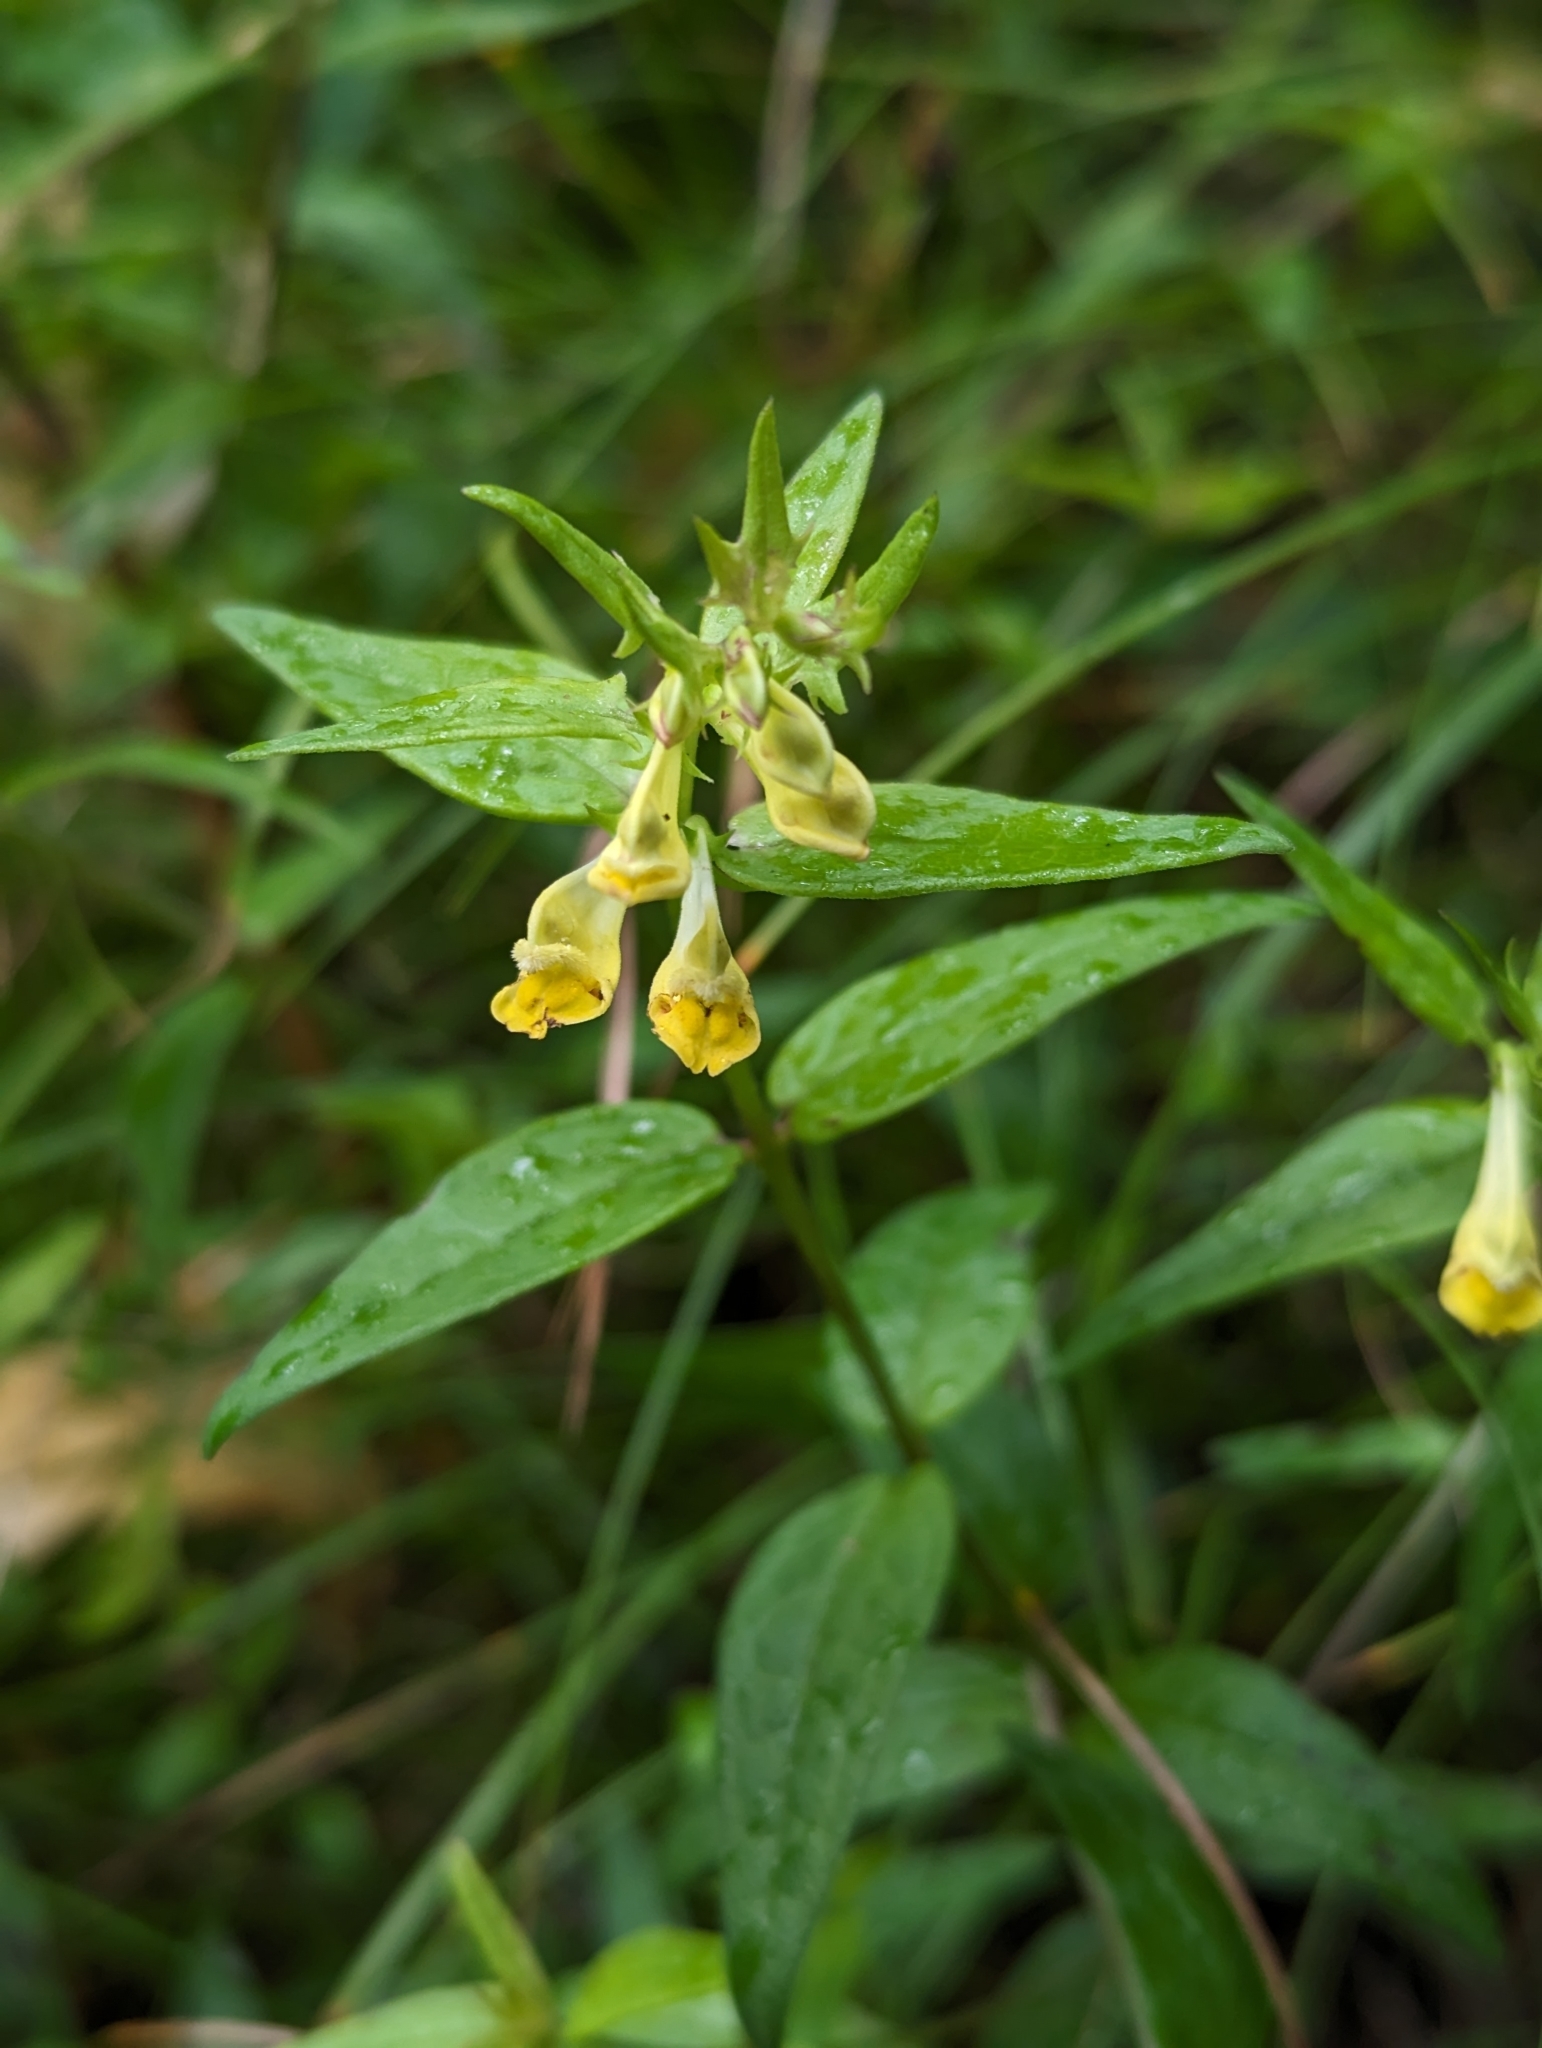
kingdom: Plantae
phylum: Tracheophyta
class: Magnoliopsida
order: Lamiales
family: Orobanchaceae
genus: Melampyrum
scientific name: Melampyrum pratense
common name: Common cow-wheat
